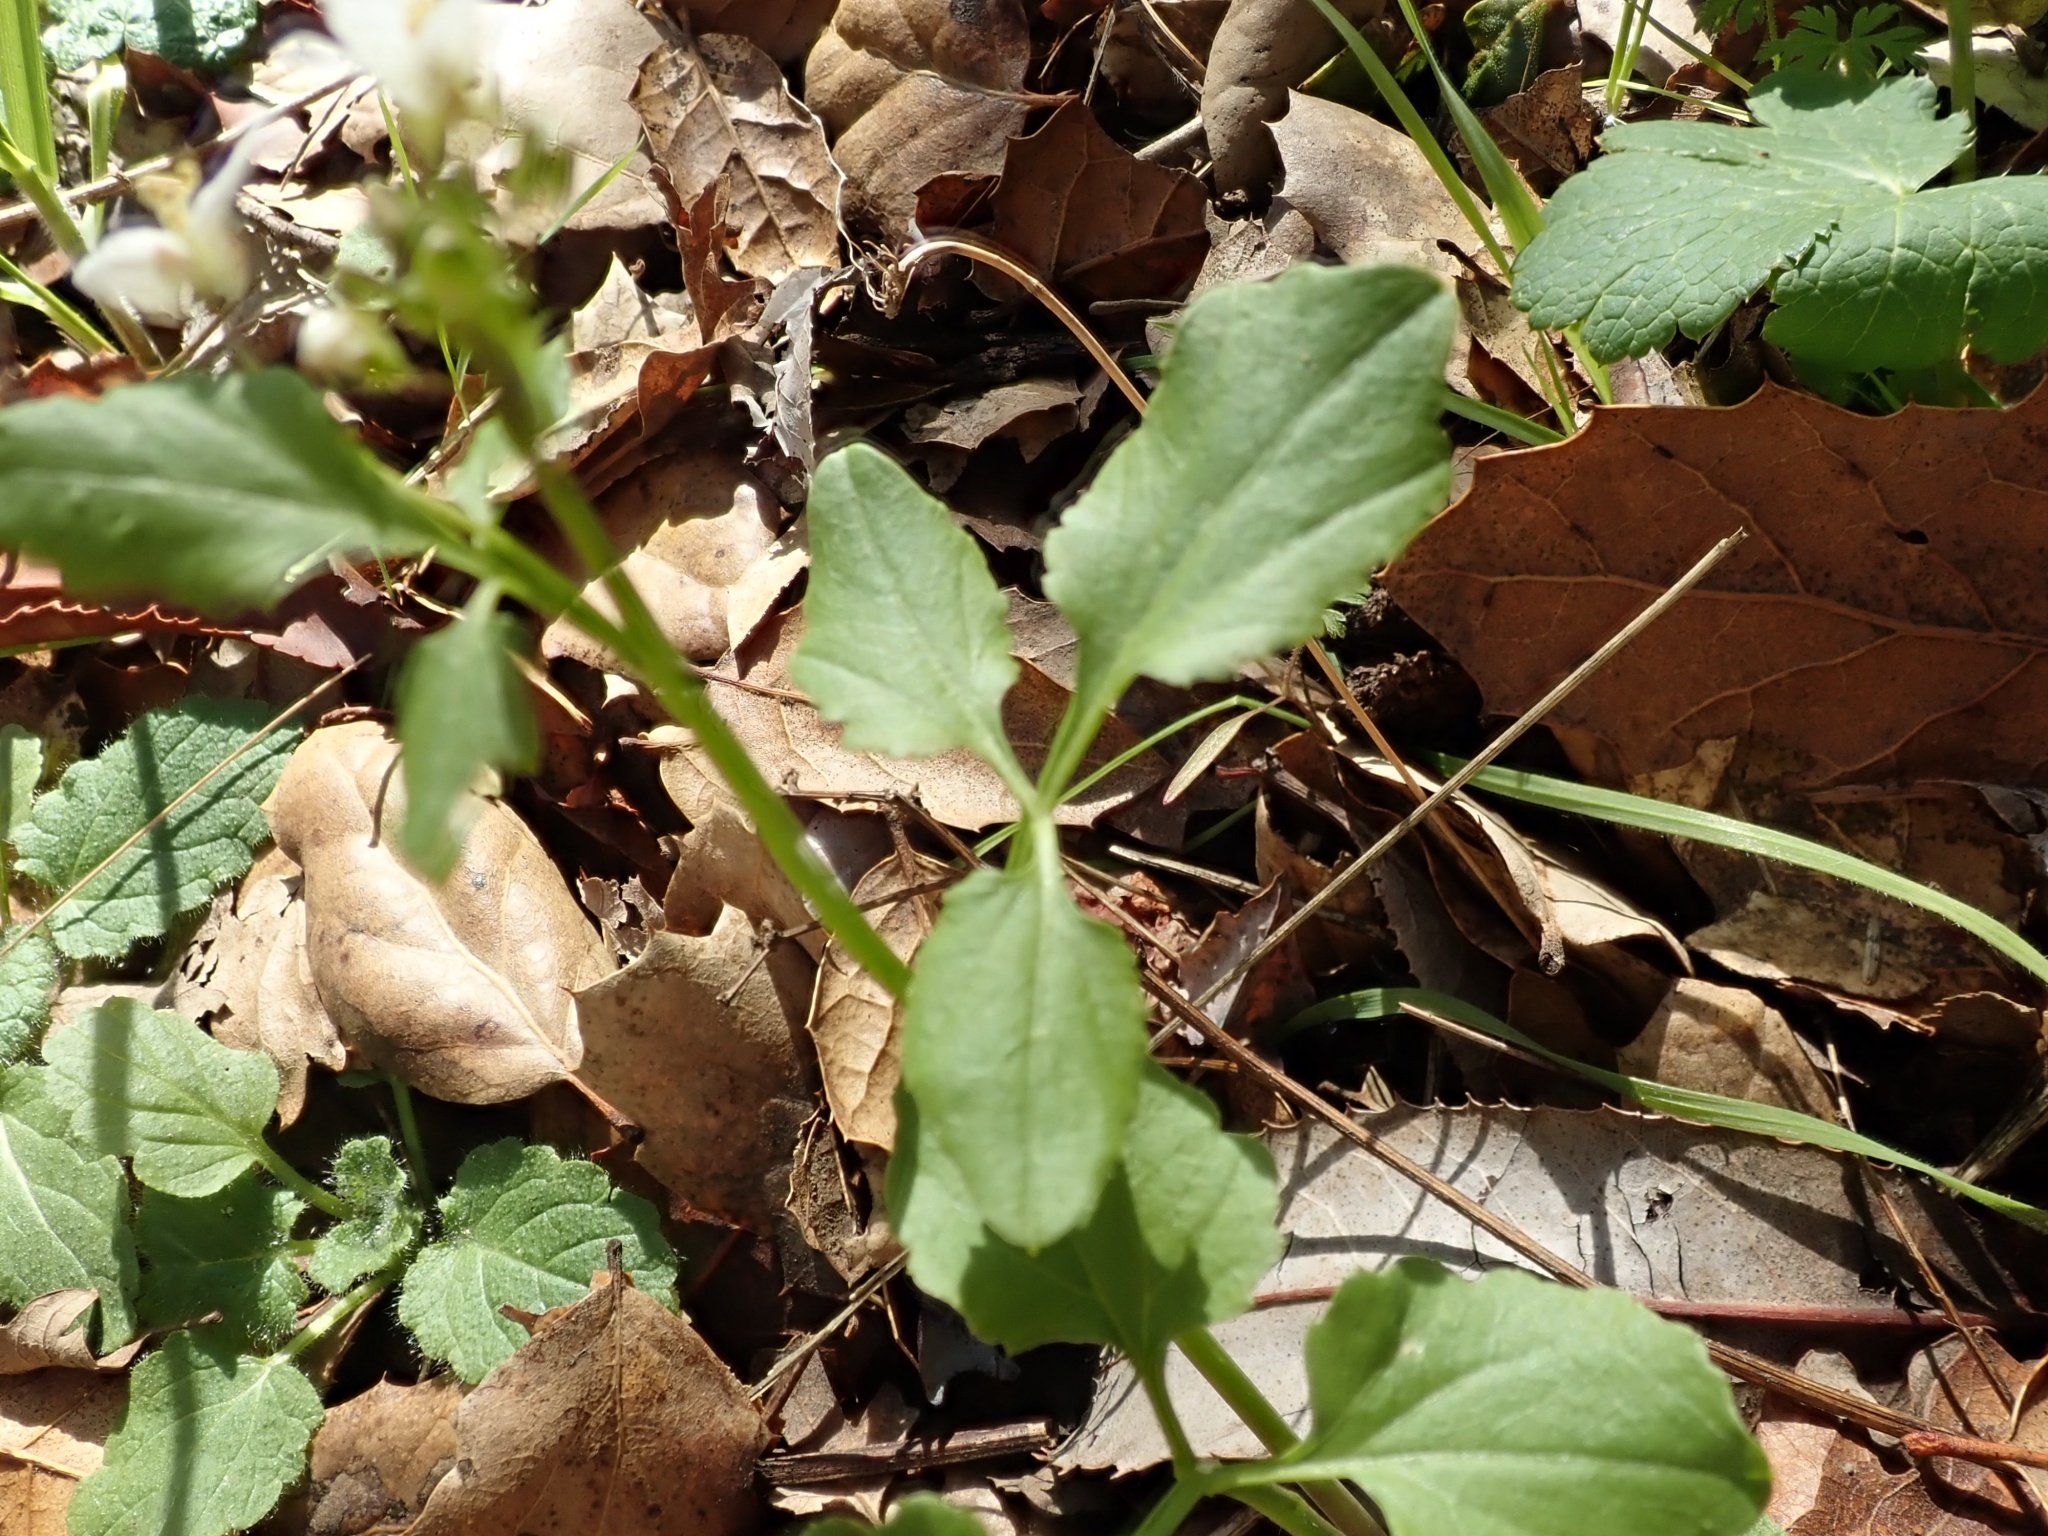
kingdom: Plantae
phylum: Tracheophyta
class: Magnoliopsida
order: Brassicales
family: Brassicaceae
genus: Cardamine
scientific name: Cardamine californica
